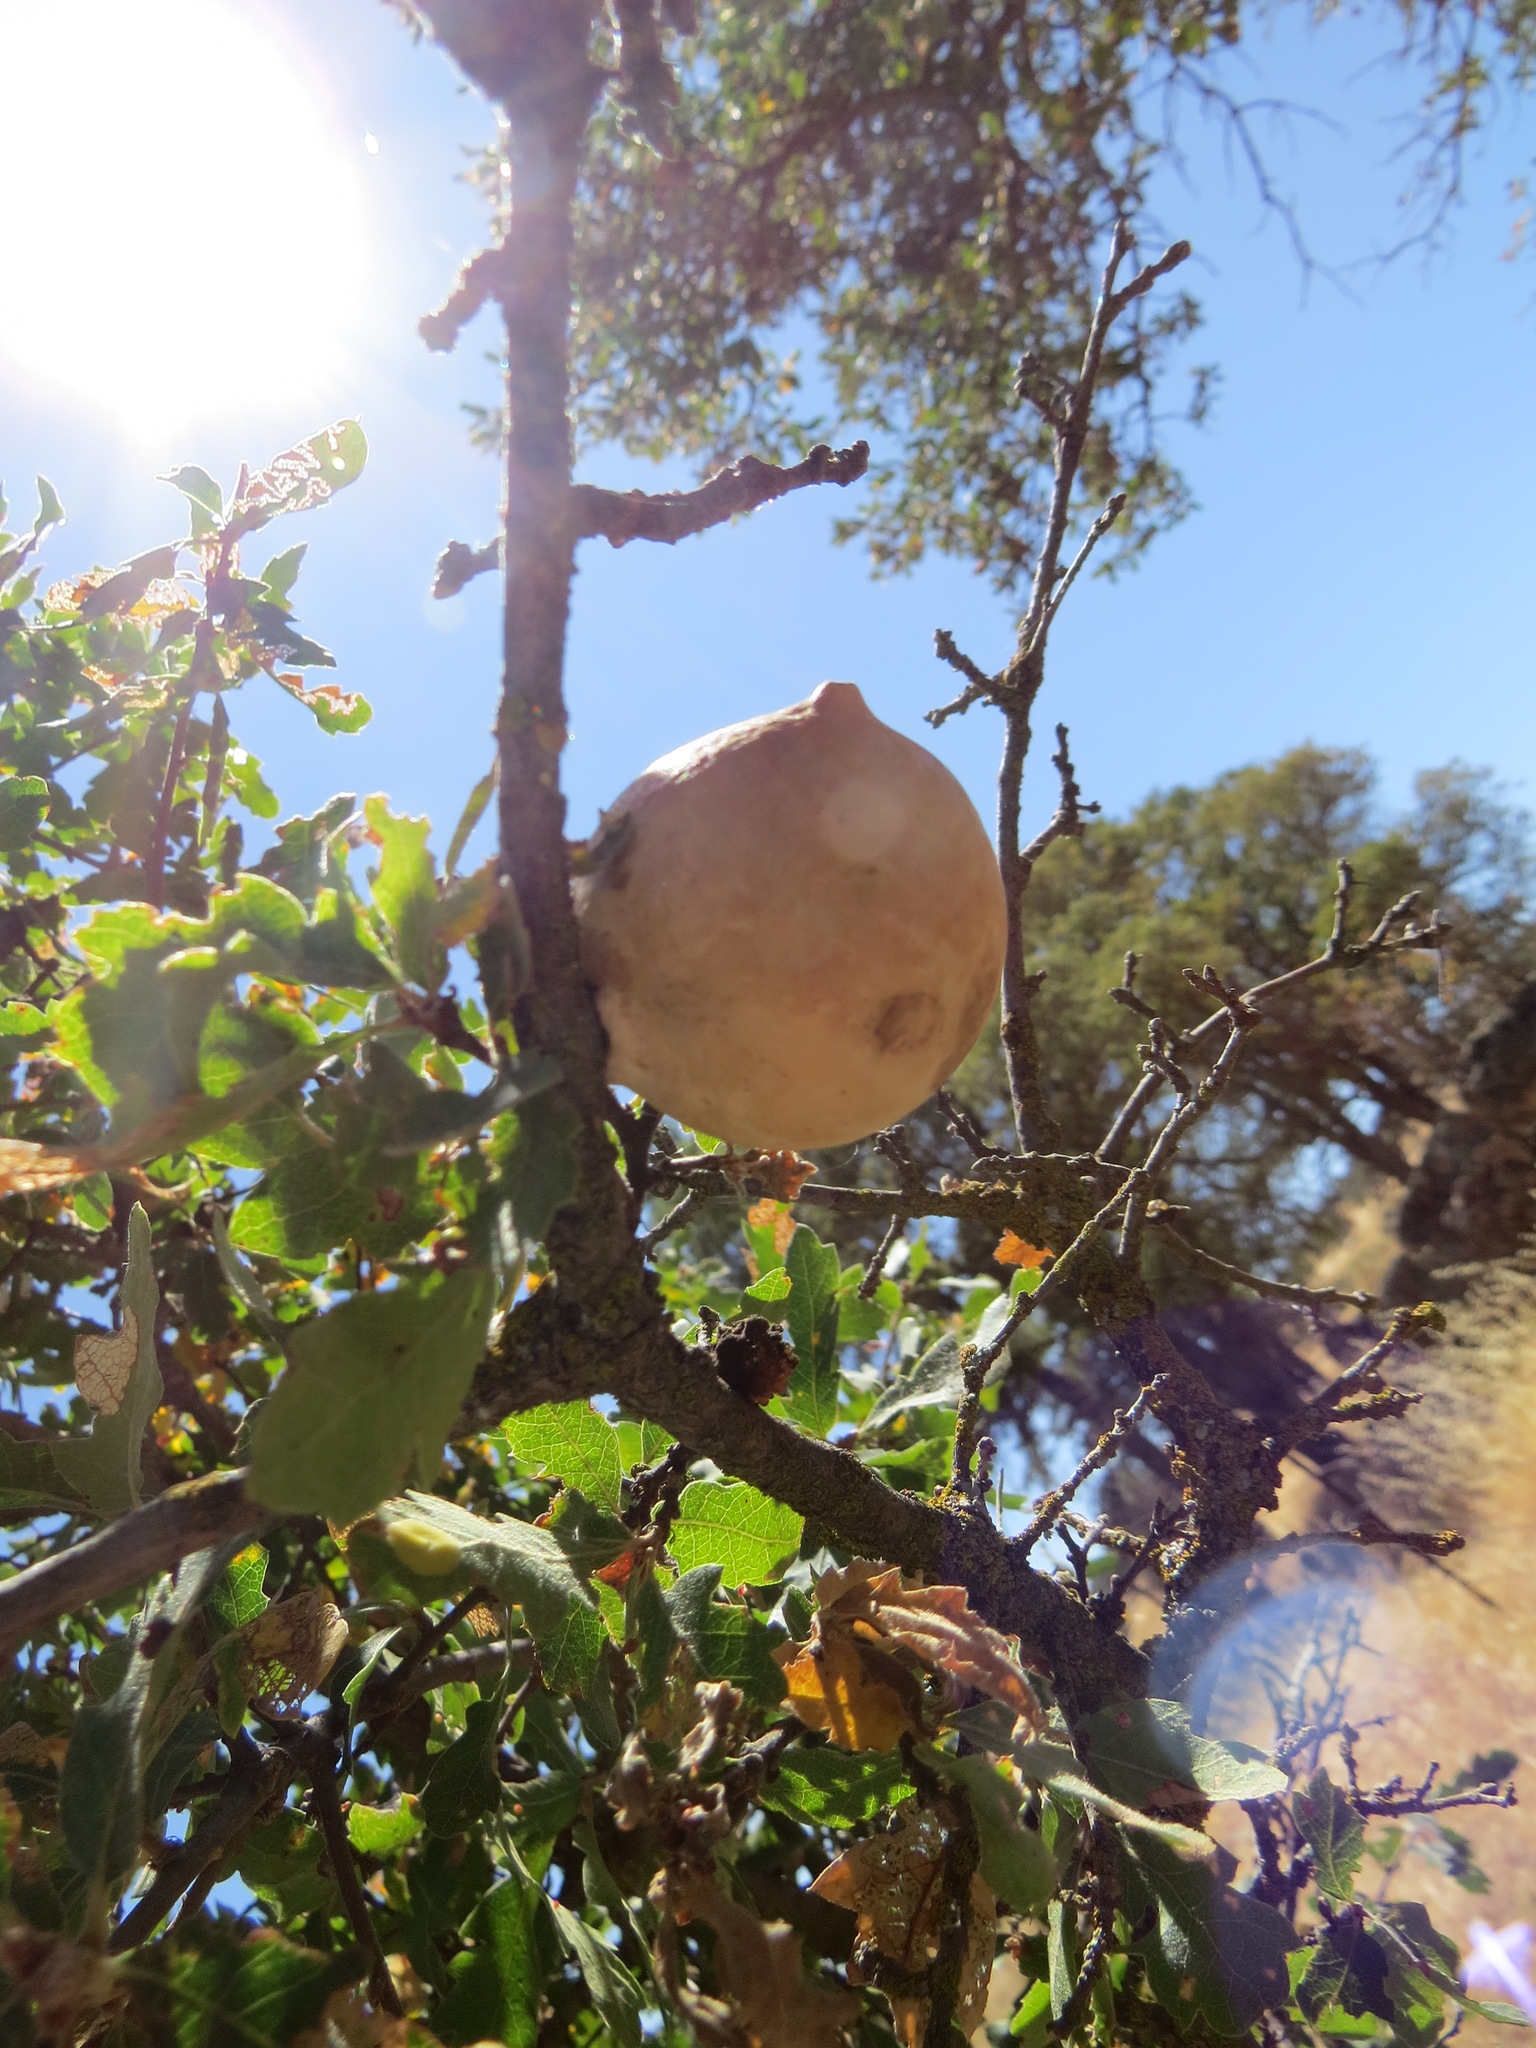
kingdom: Animalia
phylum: Arthropoda
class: Insecta
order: Hymenoptera
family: Cynipidae
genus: Andricus
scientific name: Andricus quercuscalifornicus
